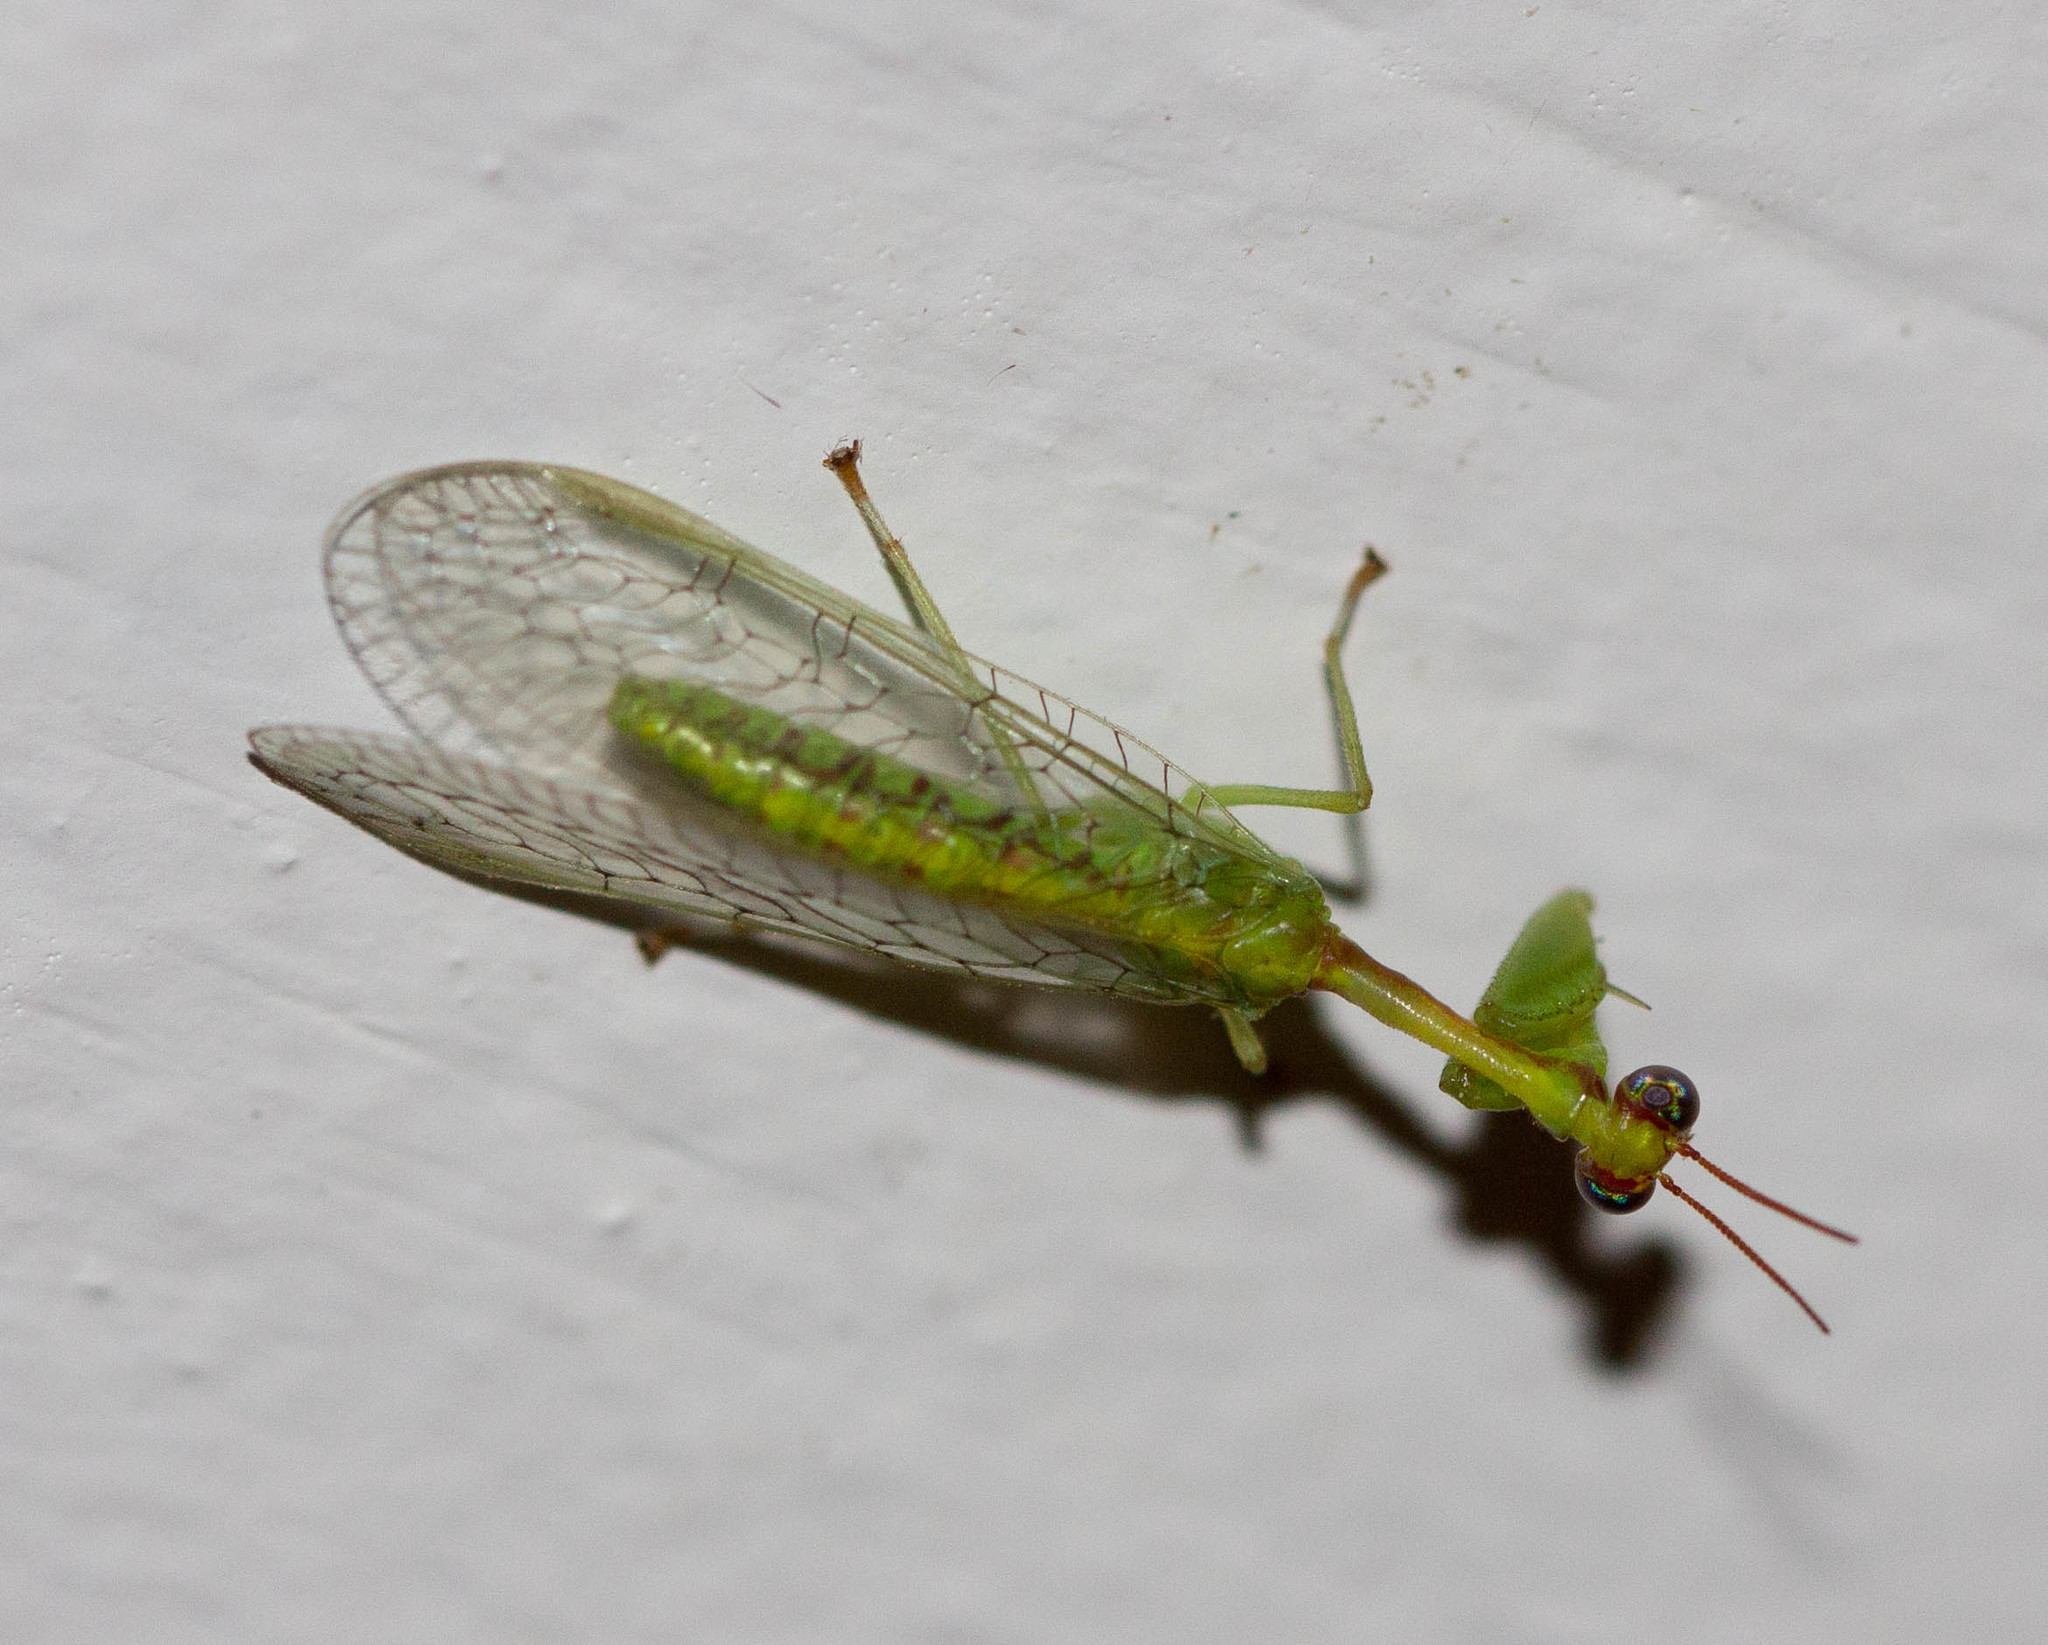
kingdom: Animalia
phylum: Arthropoda
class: Insecta
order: Neuroptera
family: Mantispidae
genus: Zeugomantispa
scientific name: Zeugomantispa minuta
